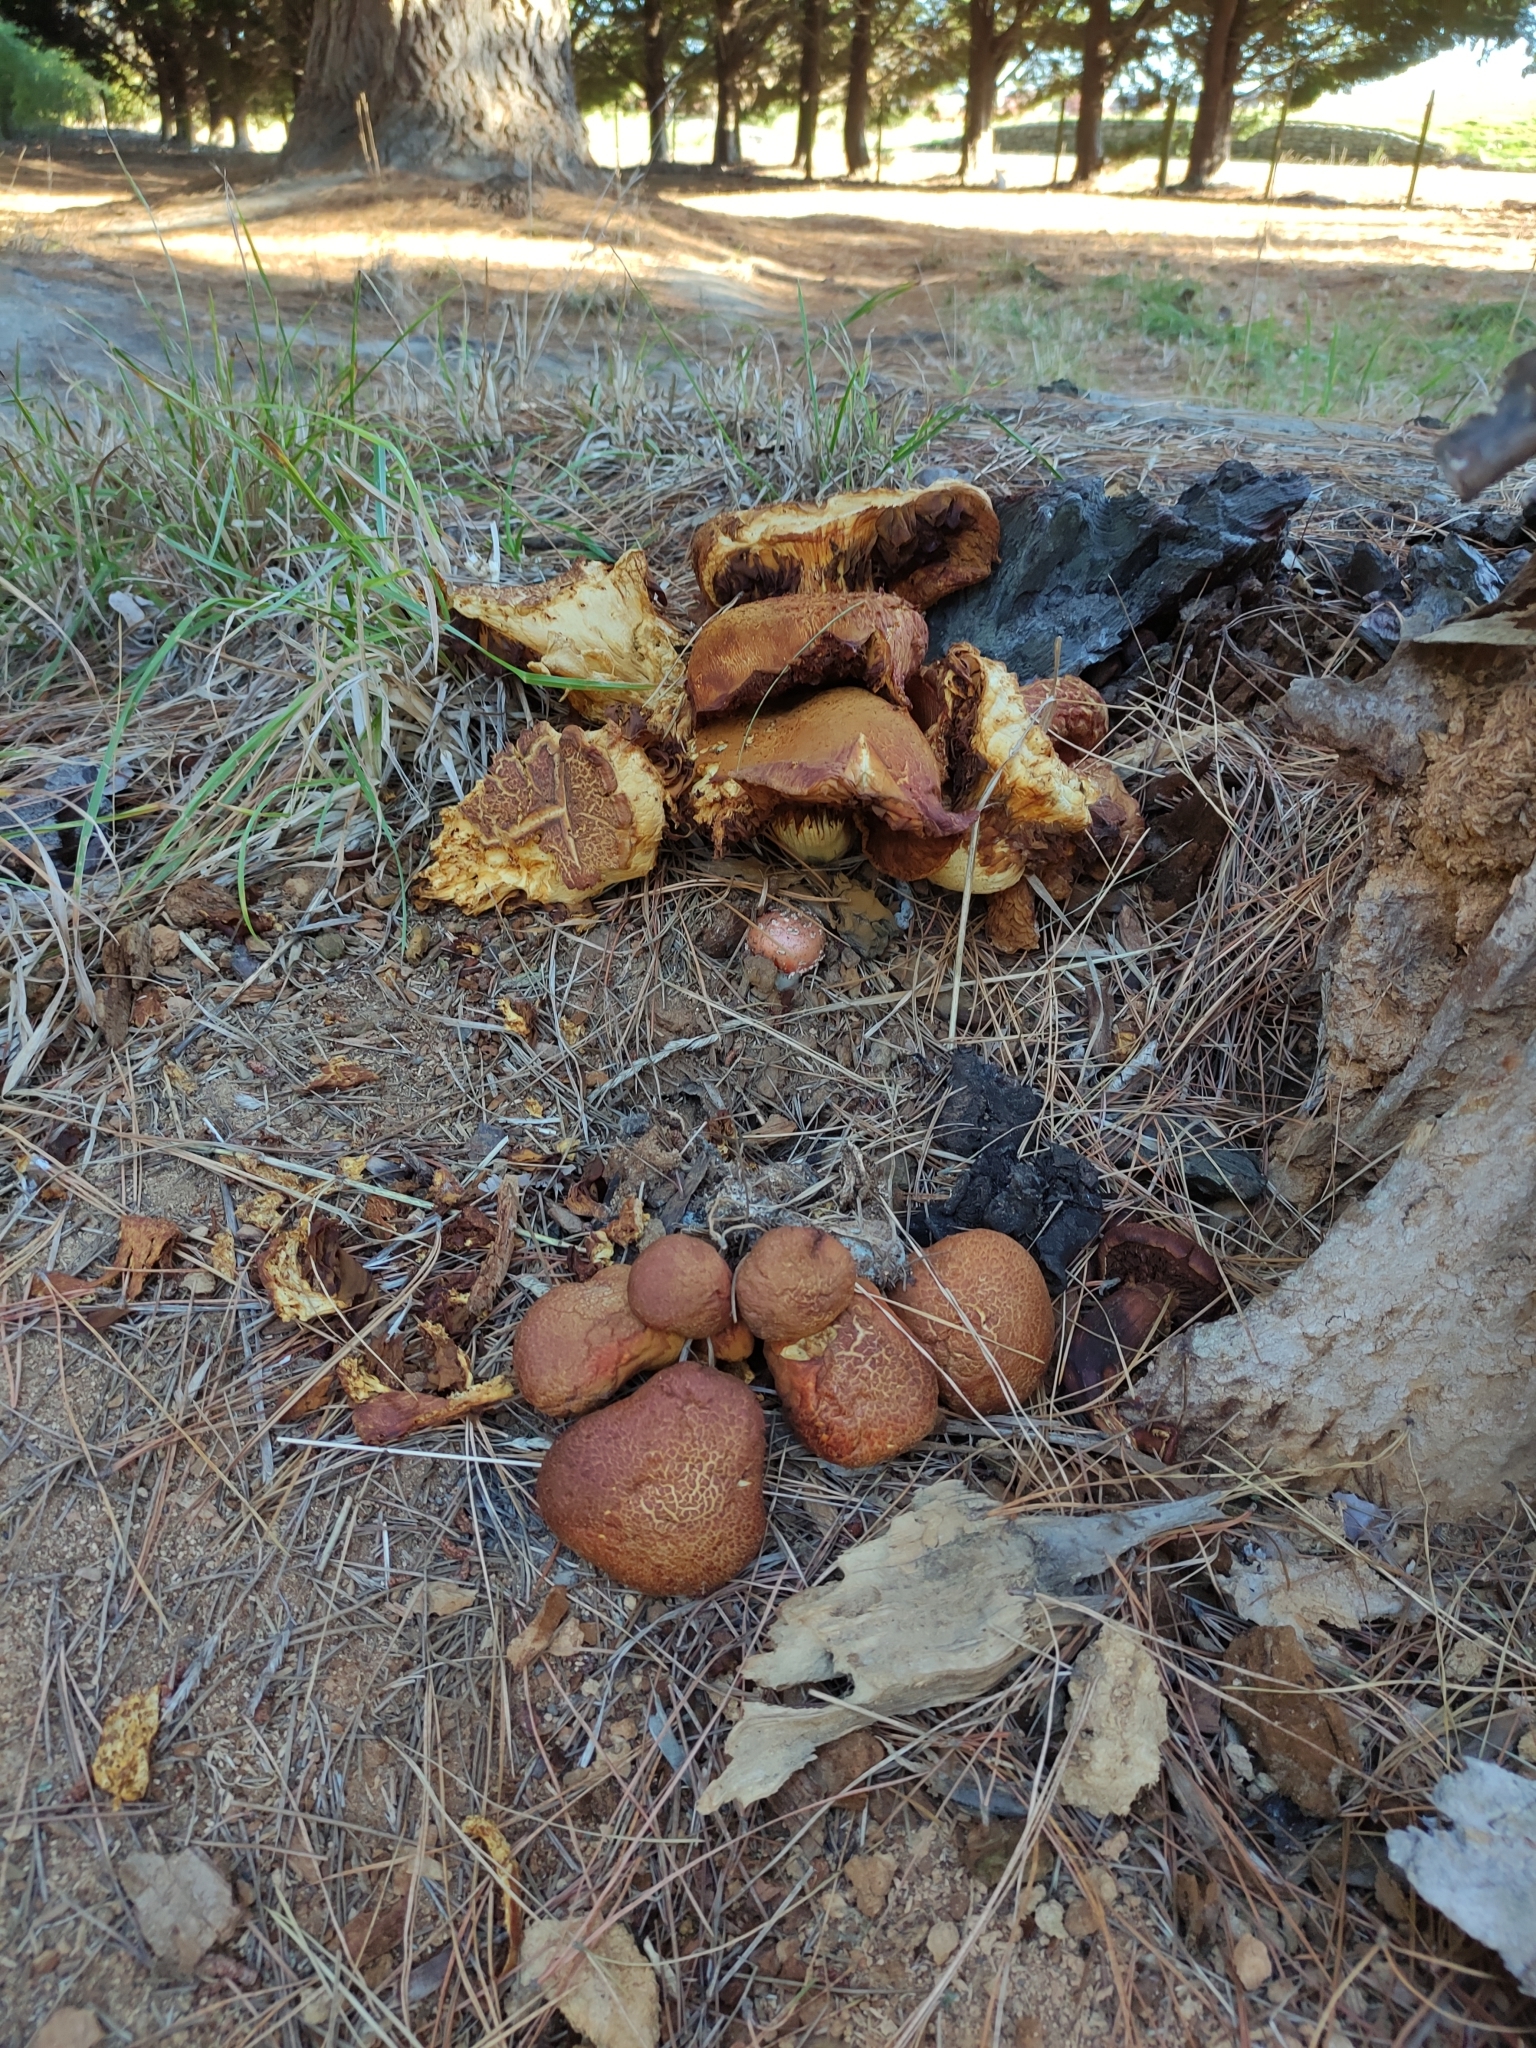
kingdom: Fungi
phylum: Basidiomycota
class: Agaricomycetes
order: Agaricales
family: Hymenogastraceae
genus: Gymnopilus
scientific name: Gymnopilus junonius
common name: Spectacular rustgill
